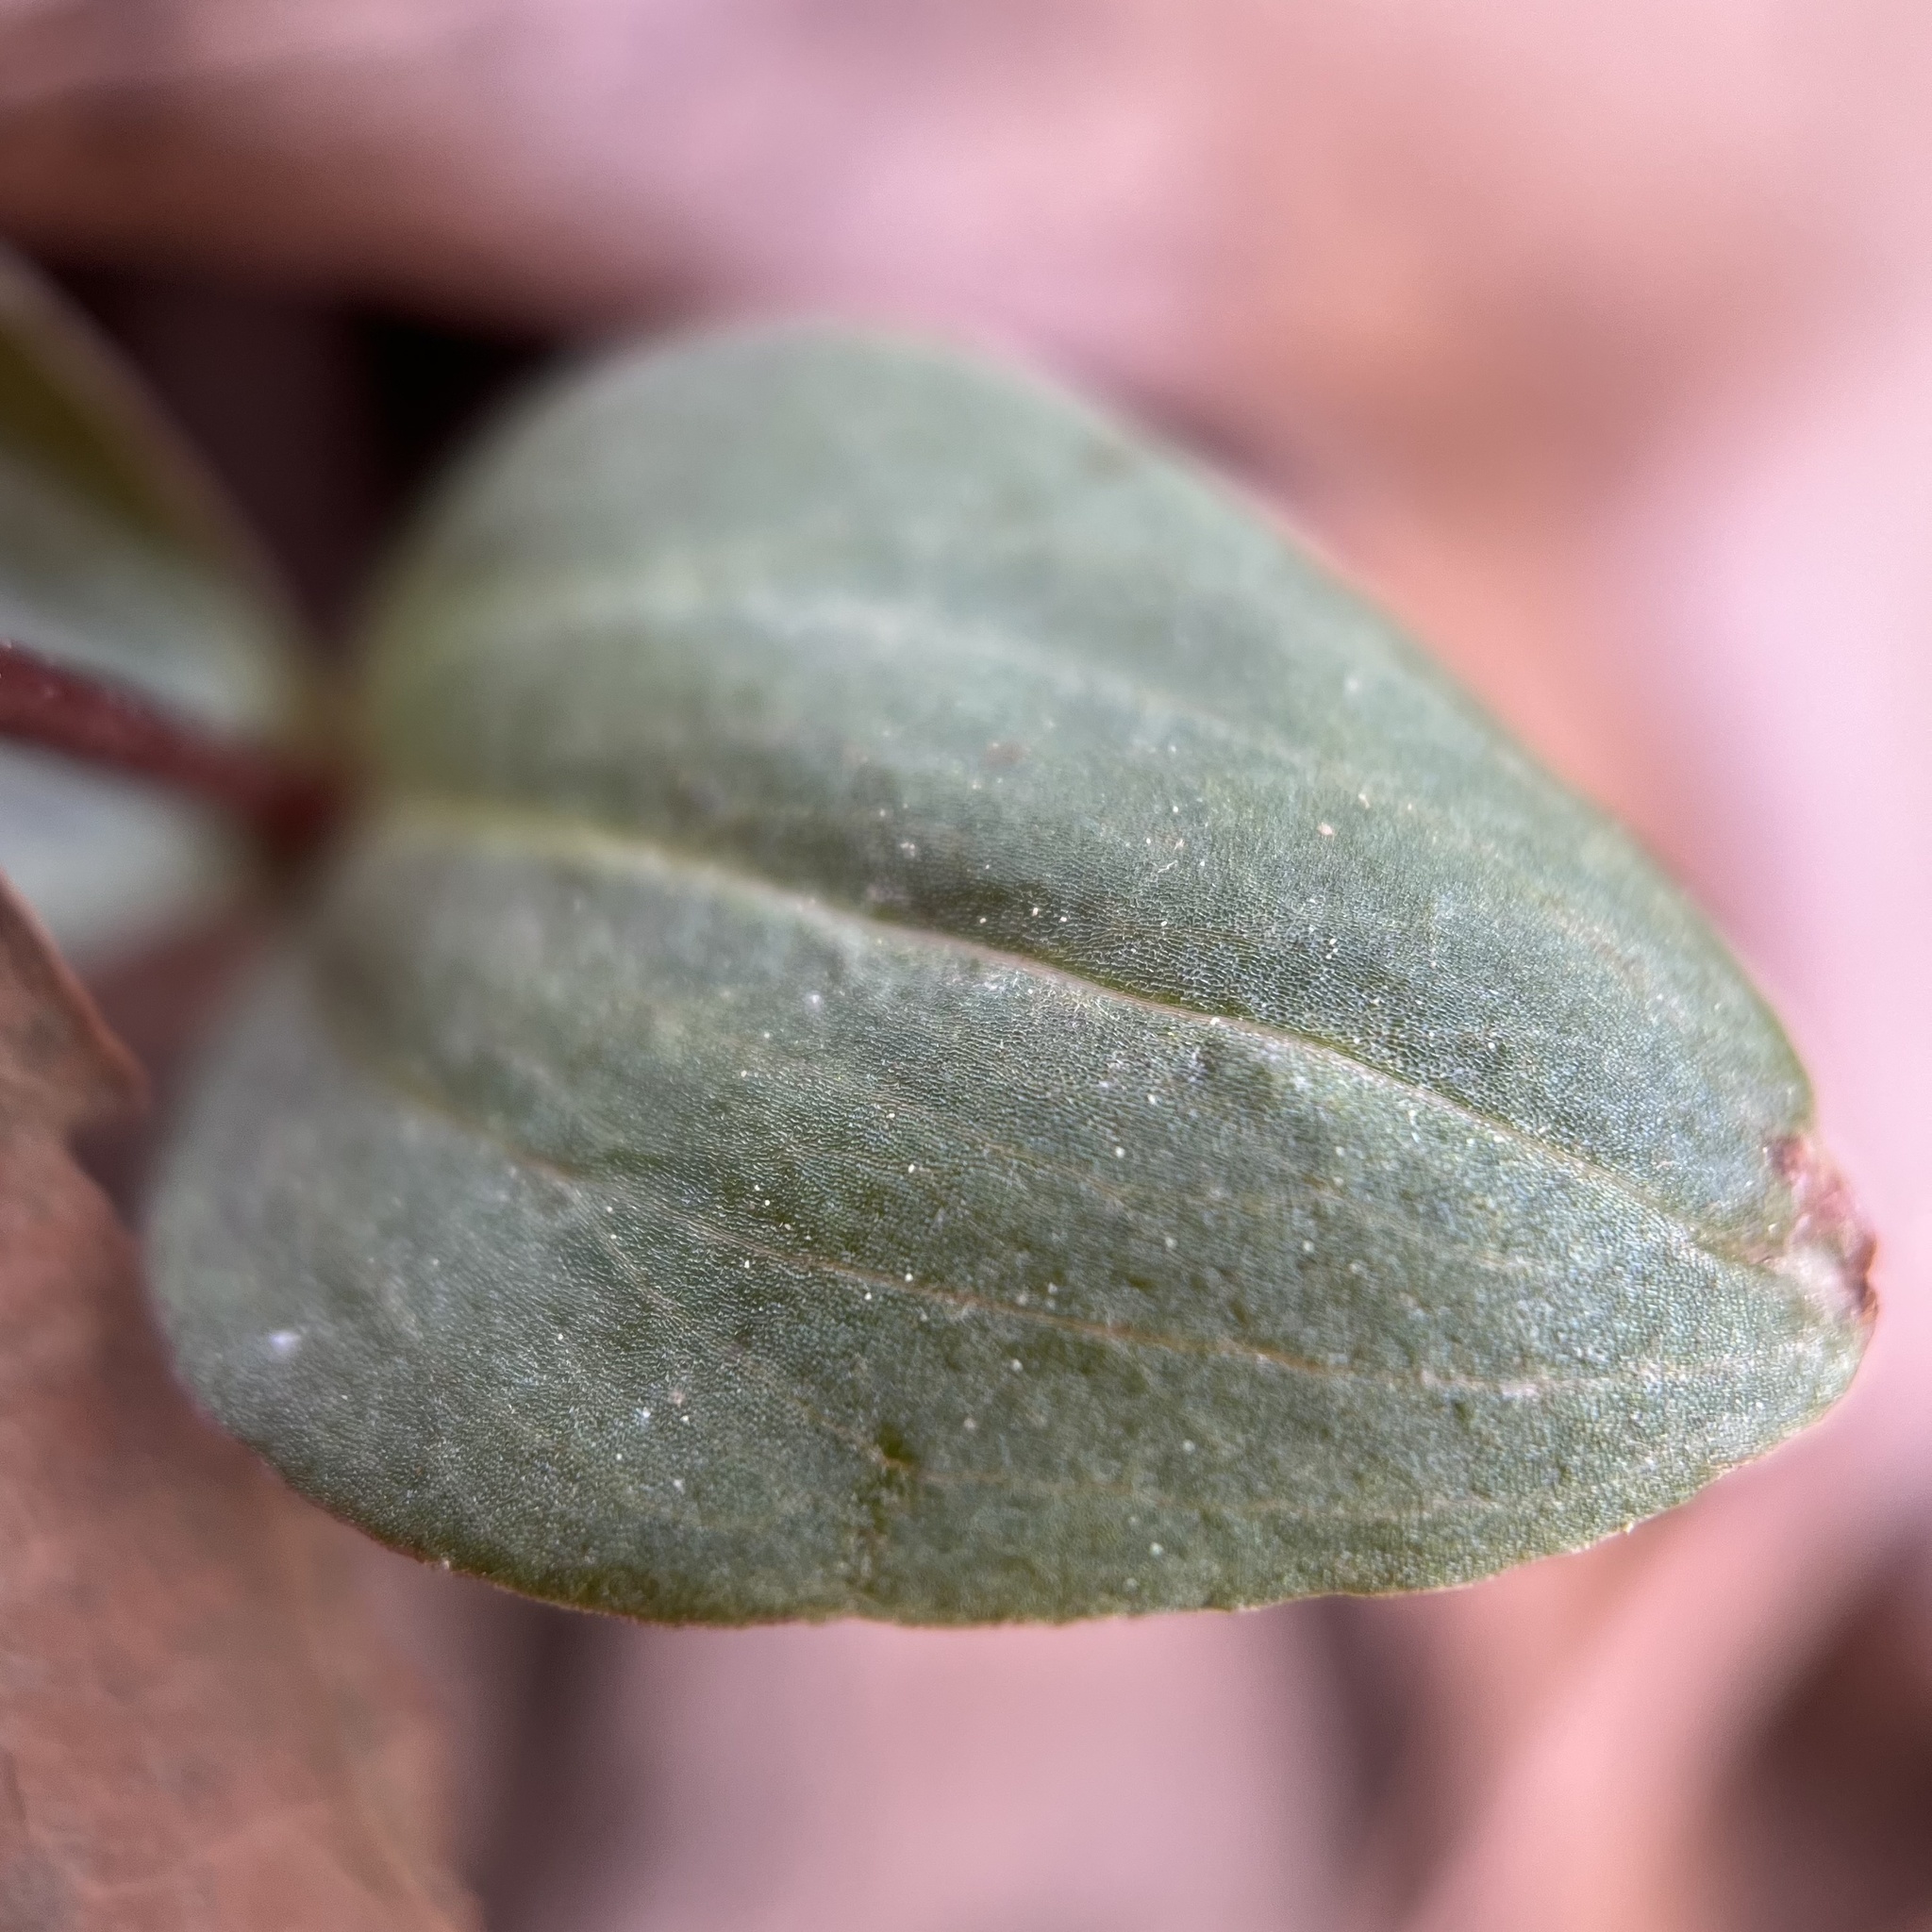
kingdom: Plantae
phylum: Tracheophyta
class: Liliopsida
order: Asparagales
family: Orchidaceae
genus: Neottia
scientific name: Neottia bifolia
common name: Southern twayblade
